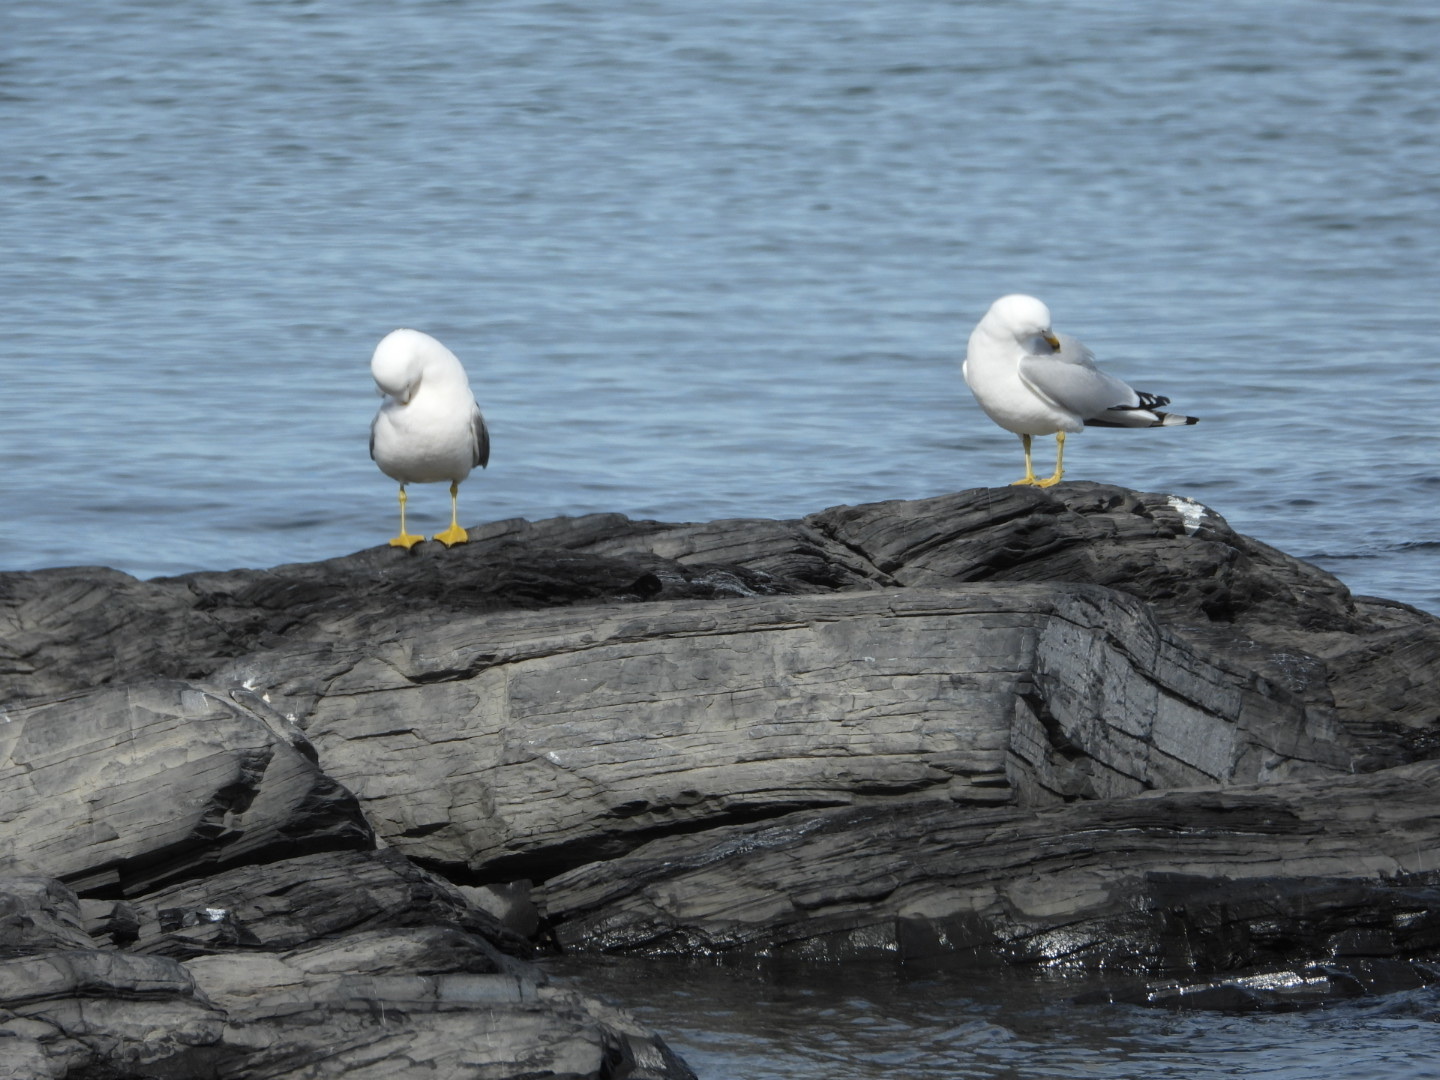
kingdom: Animalia
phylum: Chordata
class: Aves
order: Charadriiformes
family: Laridae
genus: Larus
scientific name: Larus delawarensis
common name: Ring-billed gull
